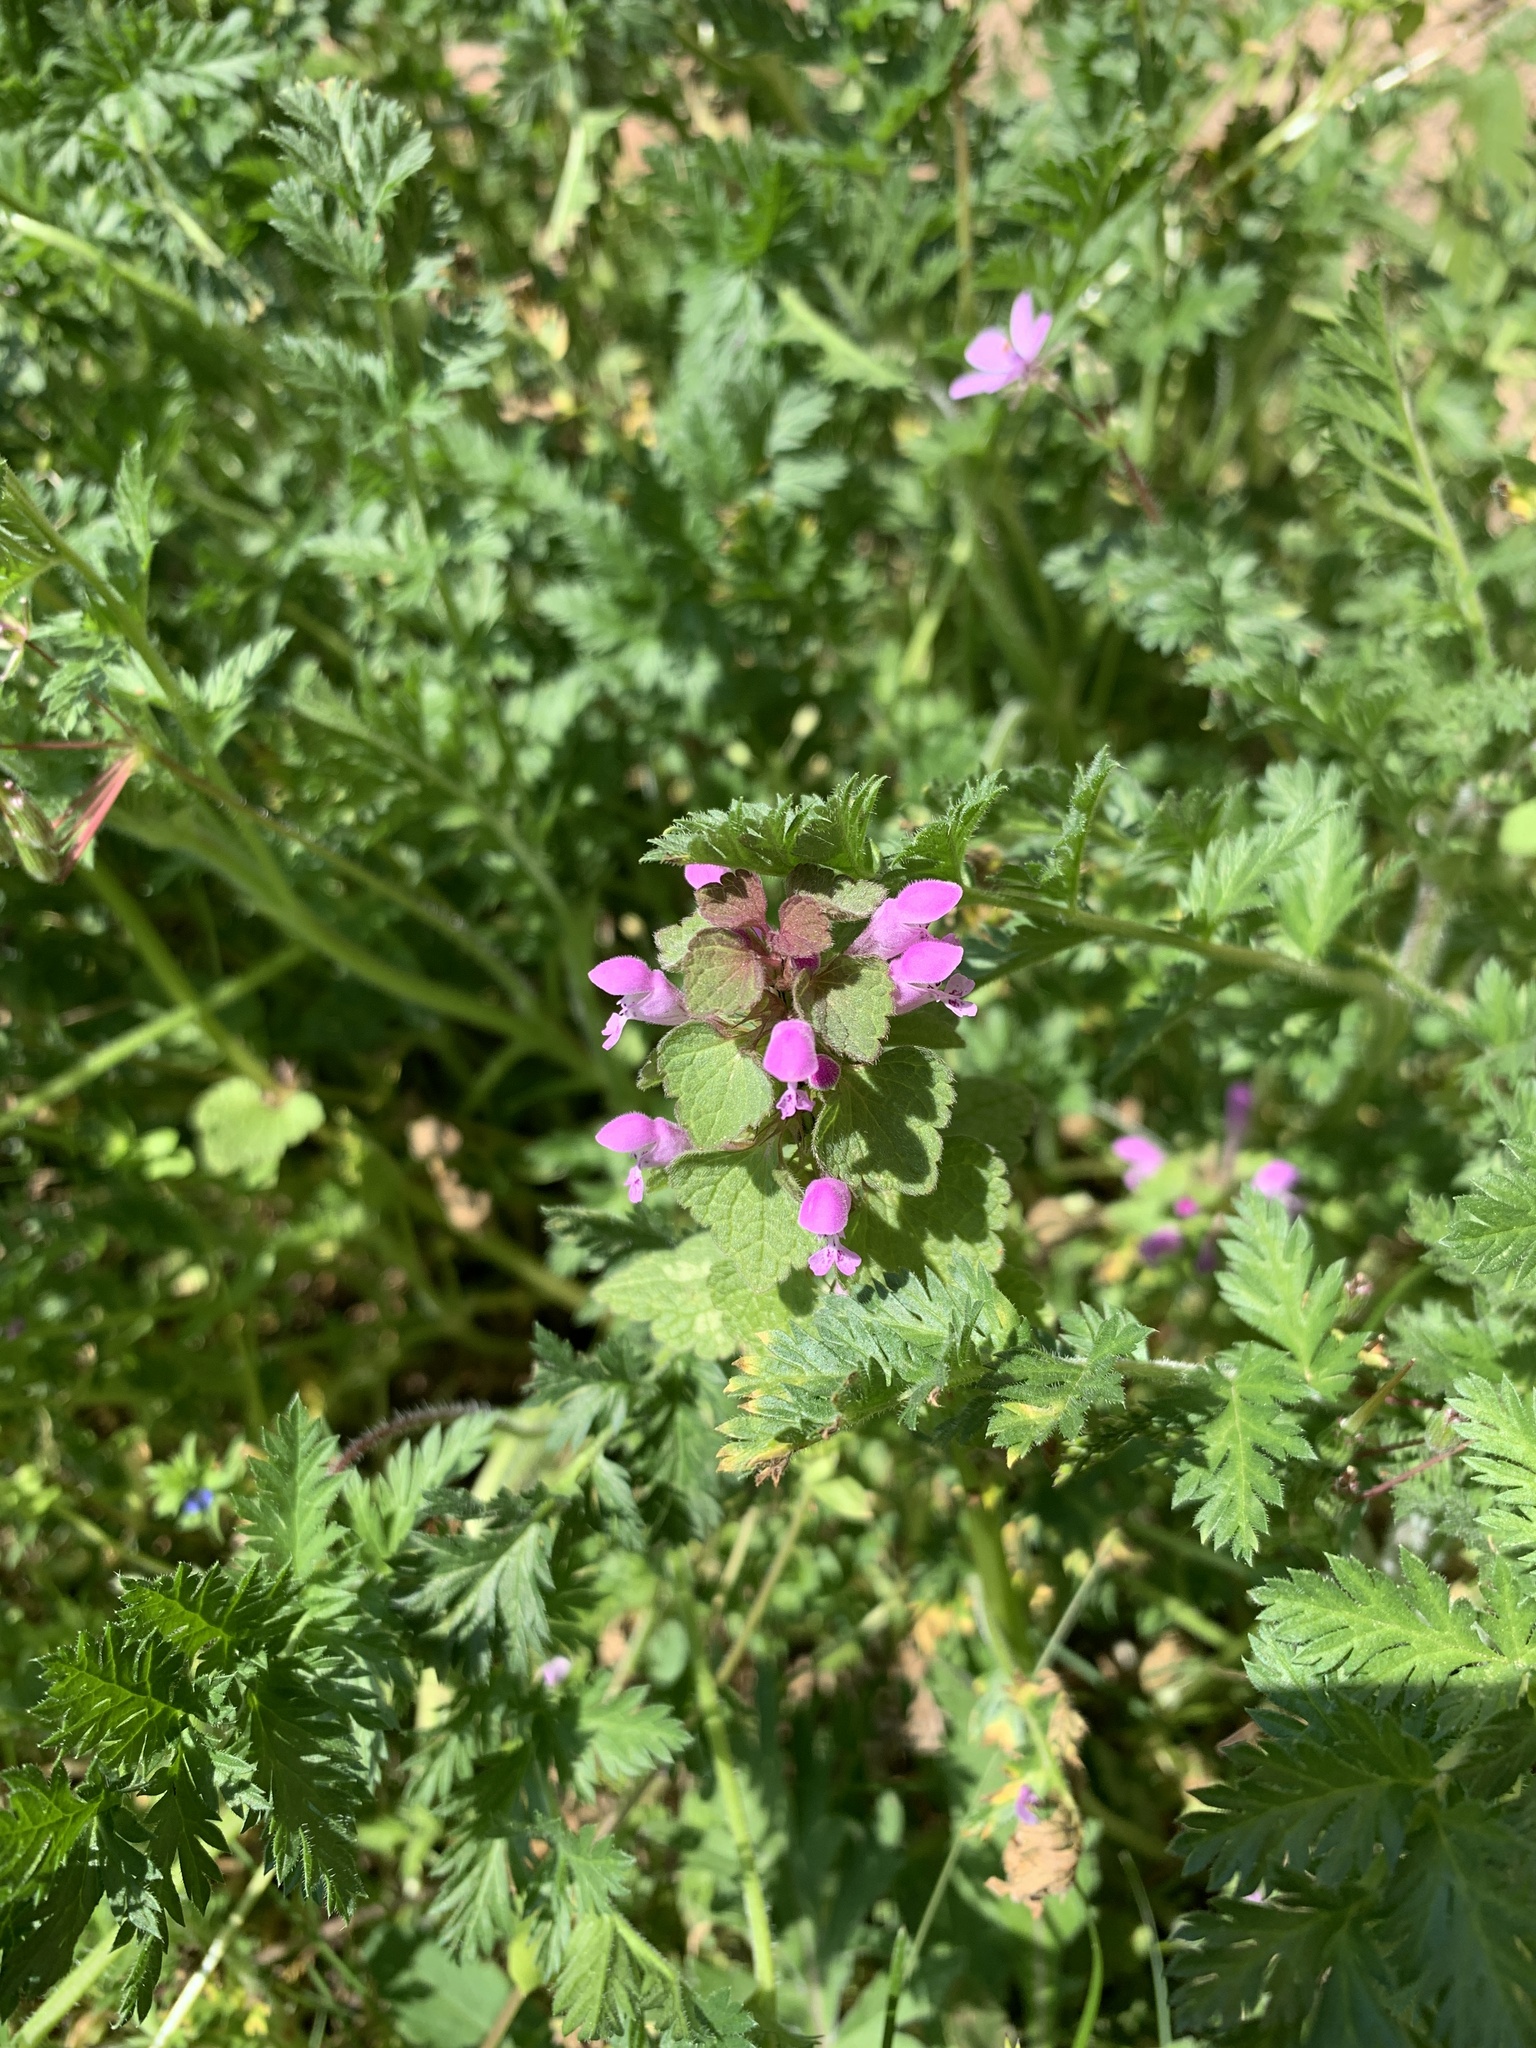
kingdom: Plantae
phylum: Tracheophyta
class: Magnoliopsida
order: Lamiales
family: Lamiaceae
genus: Lamium
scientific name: Lamium purpureum
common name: Red dead-nettle
